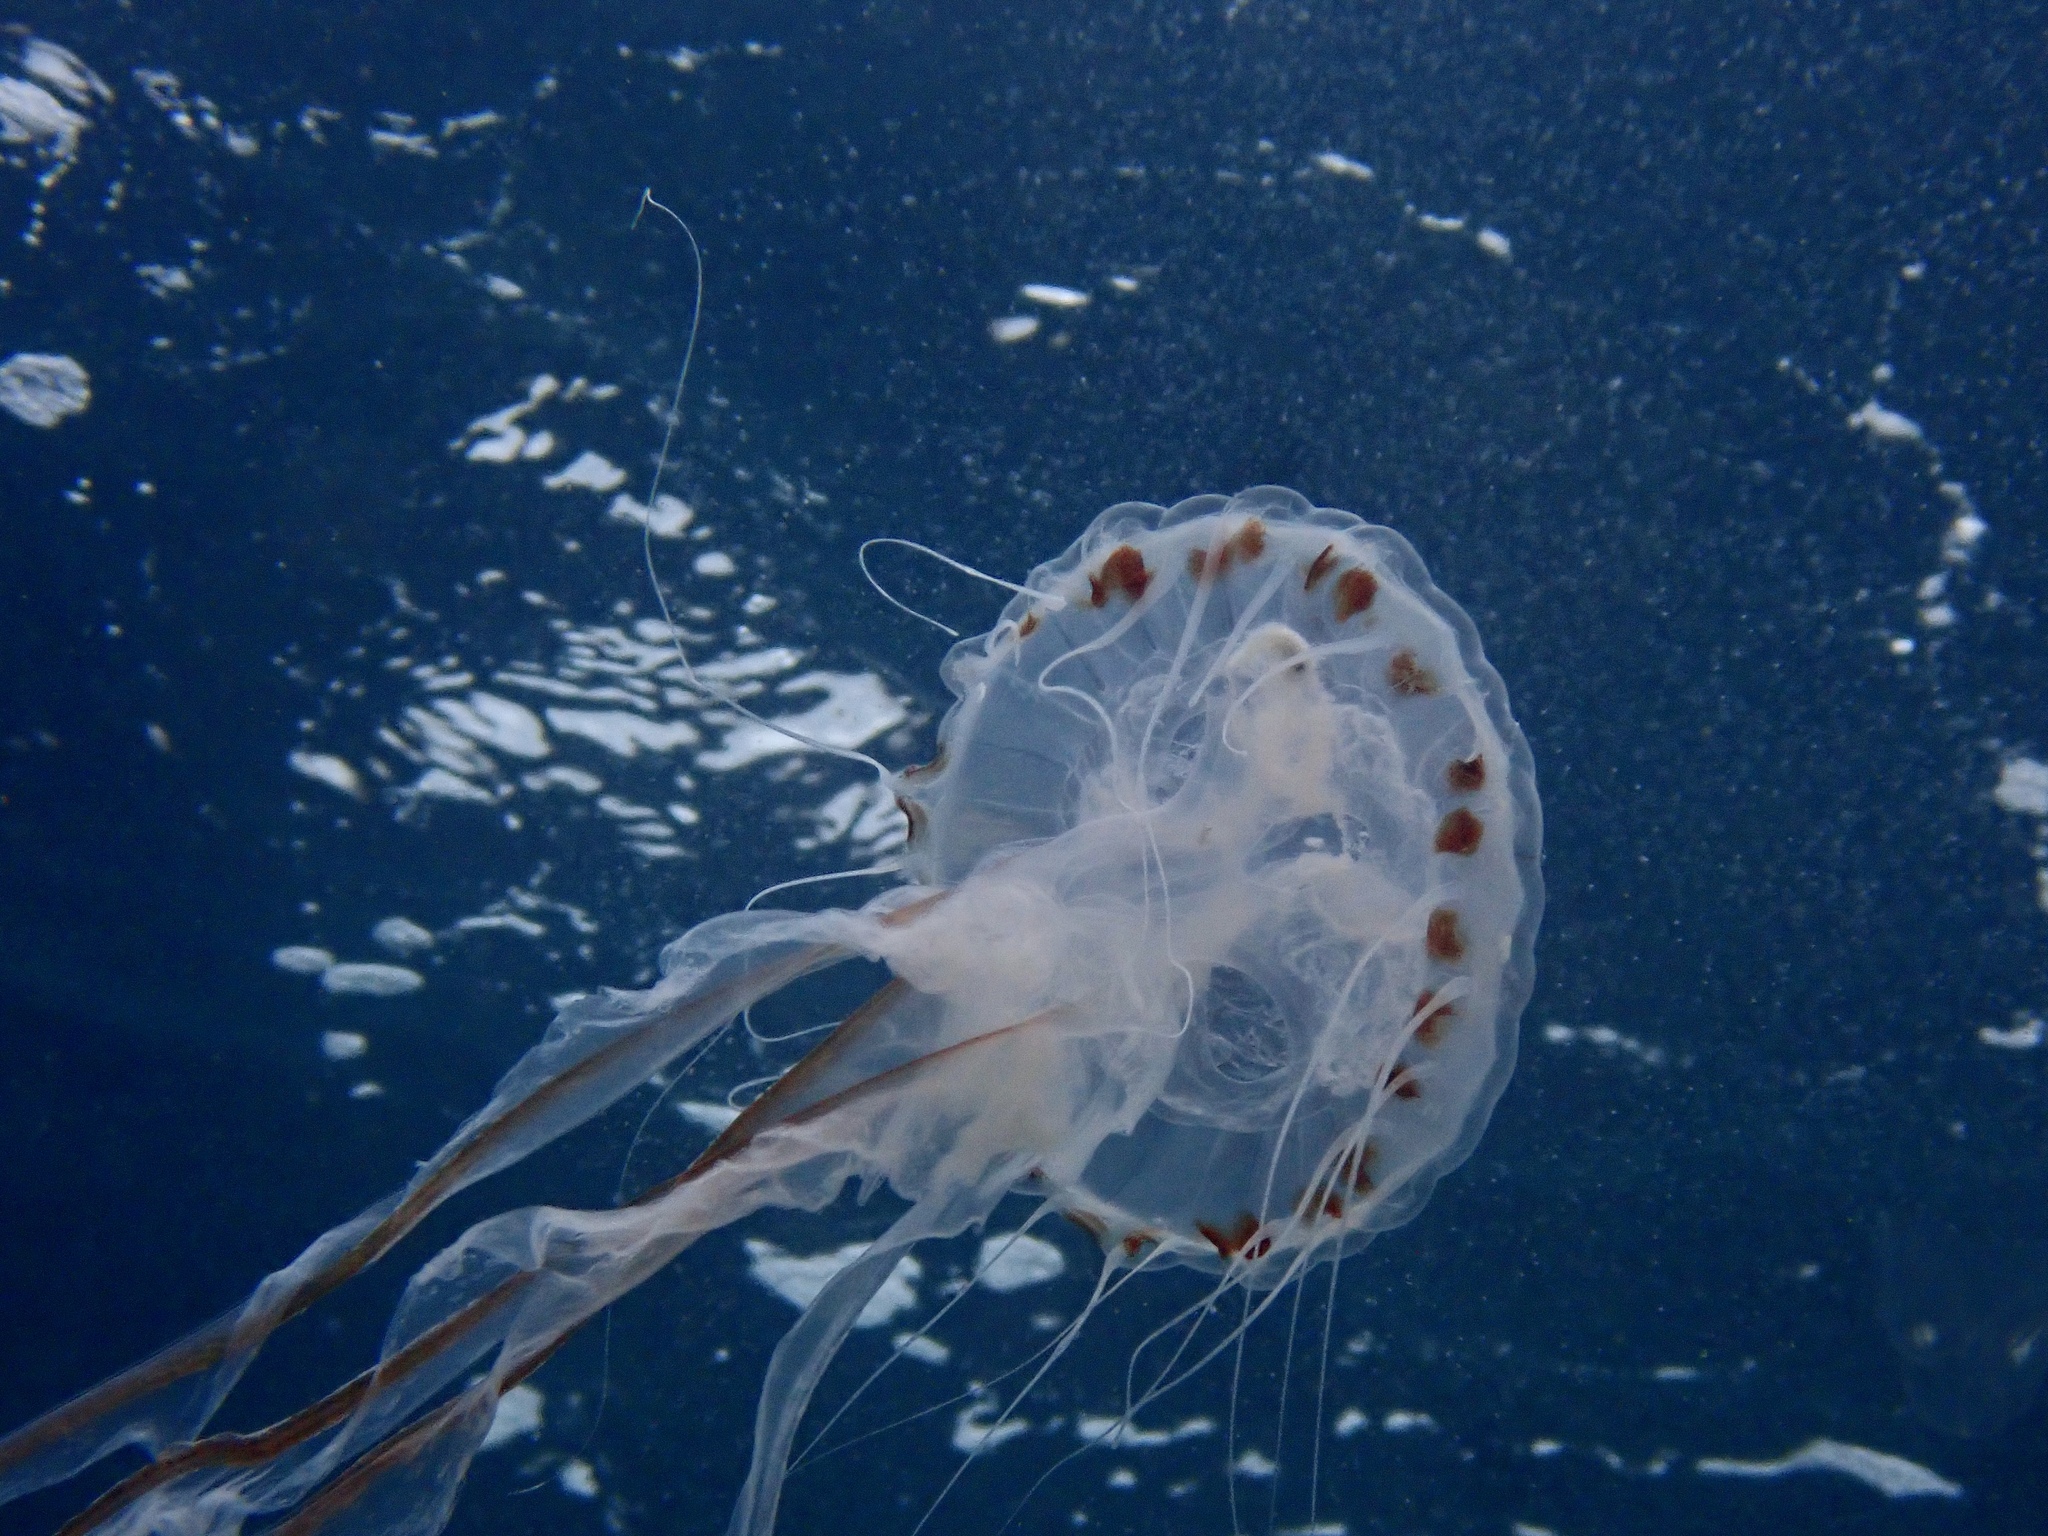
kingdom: Animalia
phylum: Cnidaria
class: Scyphozoa
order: Semaeostomeae
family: Pelagiidae
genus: Chrysaora
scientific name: Chrysaora hysoscella
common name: Compass jellyfish
